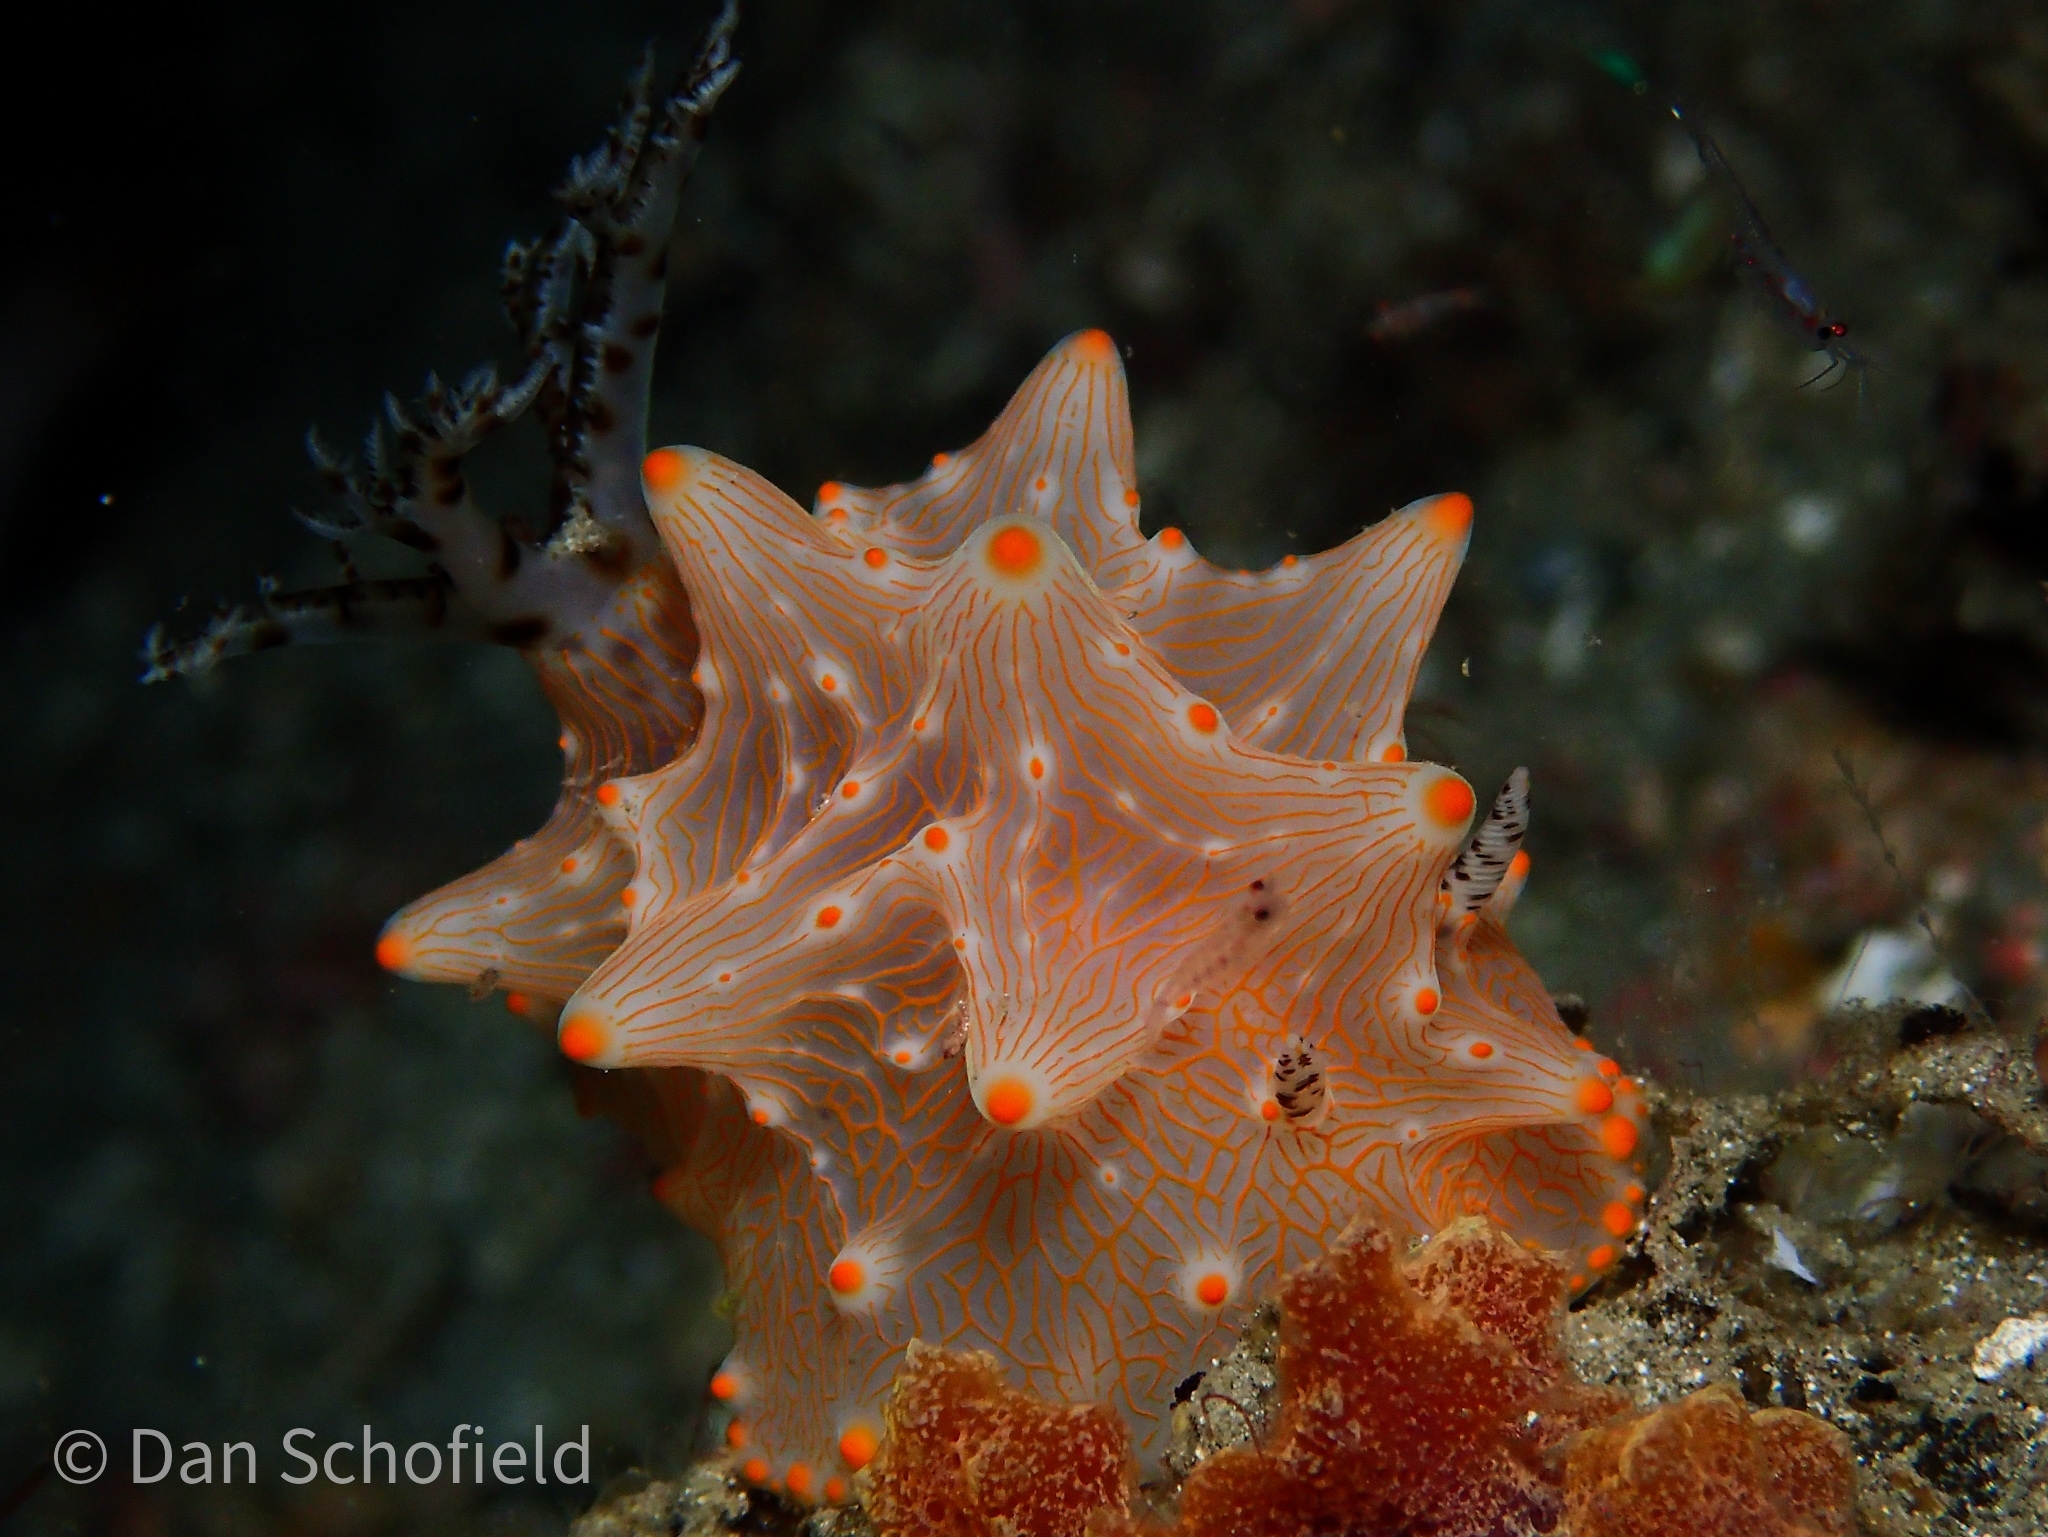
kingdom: Animalia
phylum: Mollusca
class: Gastropoda
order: Nudibranchia
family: Discodorididae
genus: Halgerda
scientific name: Halgerda batangas
